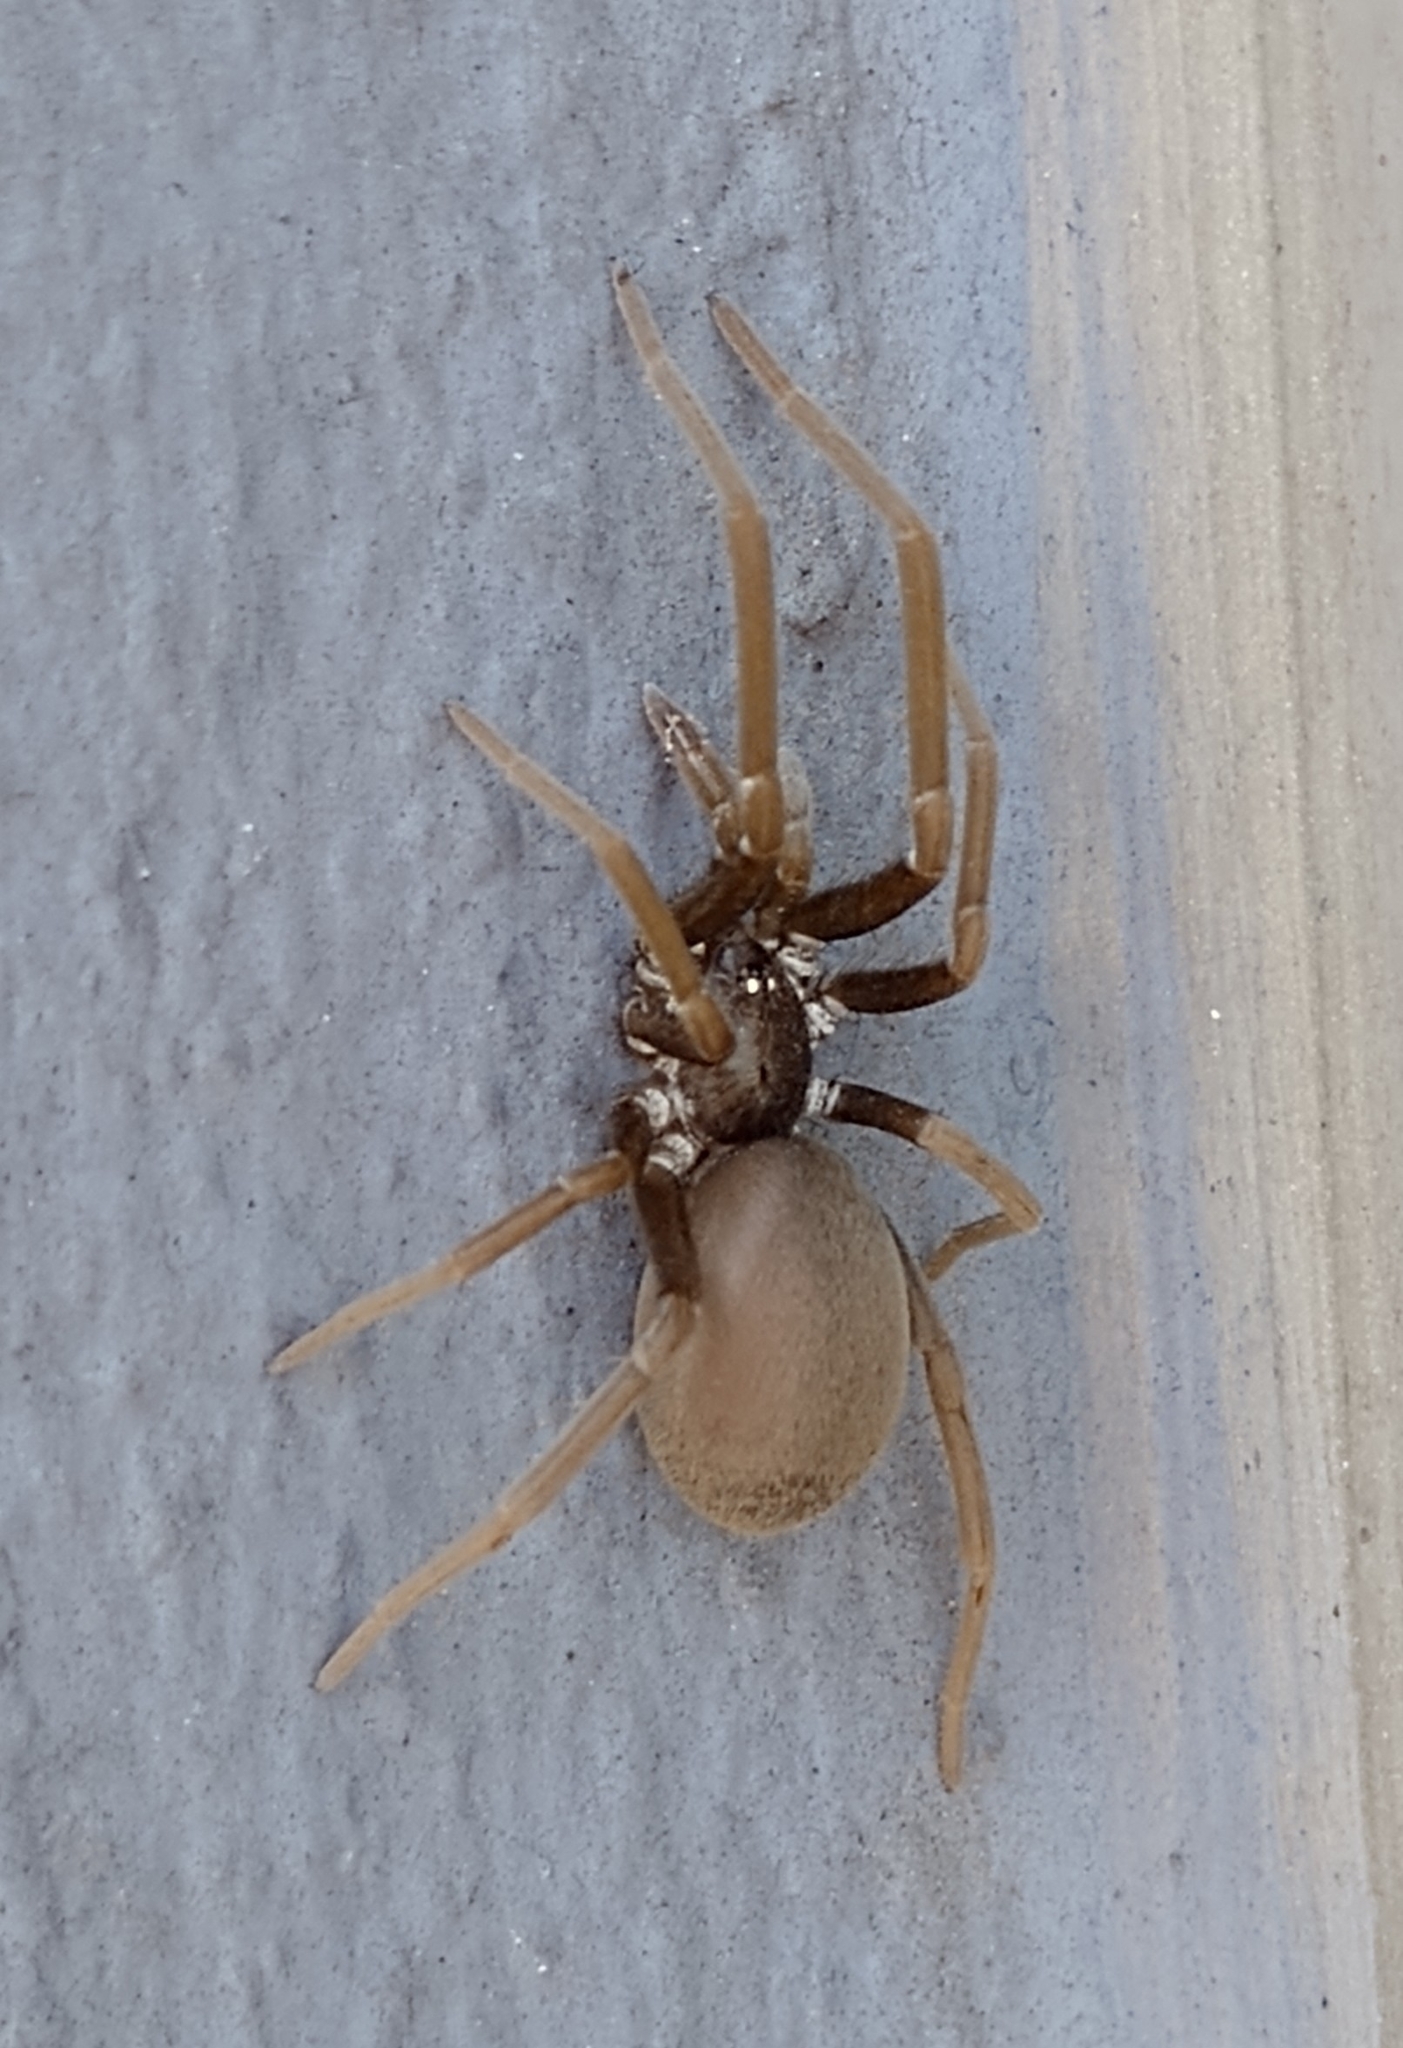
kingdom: Animalia
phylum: Arthropoda
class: Arachnida
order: Araneae
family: Filistatidae
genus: Kukulcania
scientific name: Kukulcania hibernalis
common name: Crevice weaver
